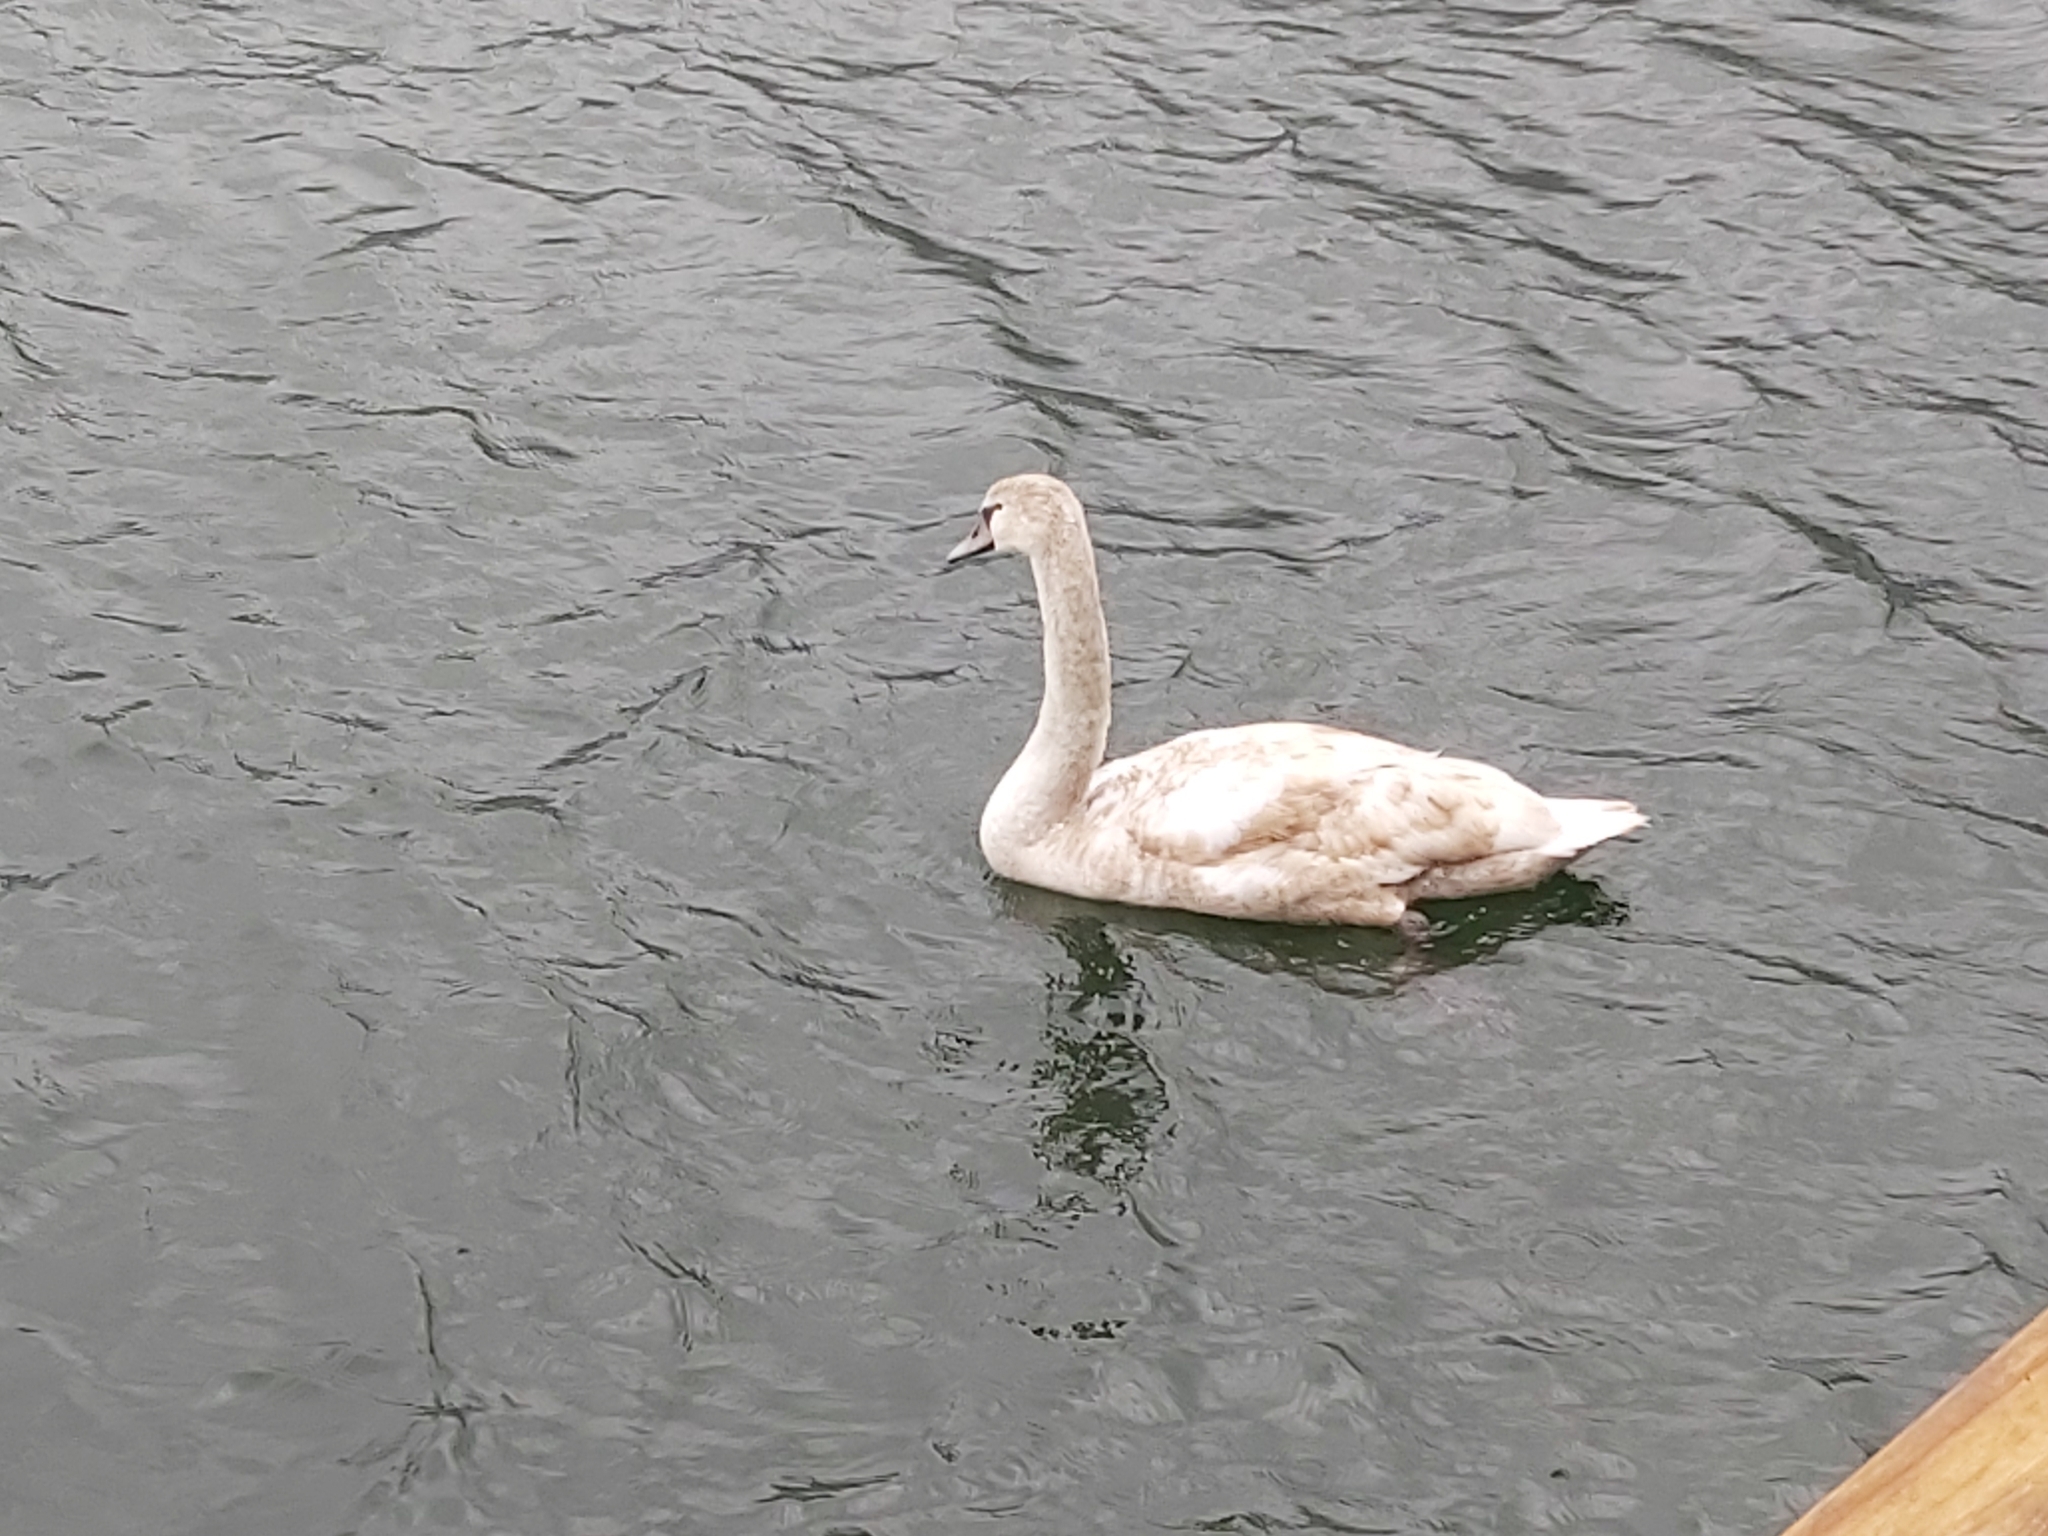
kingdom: Animalia
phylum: Chordata
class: Aves
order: Anseriformes
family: Anatidae
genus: Cygnus
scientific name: Cygnus olor
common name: Mute swan
